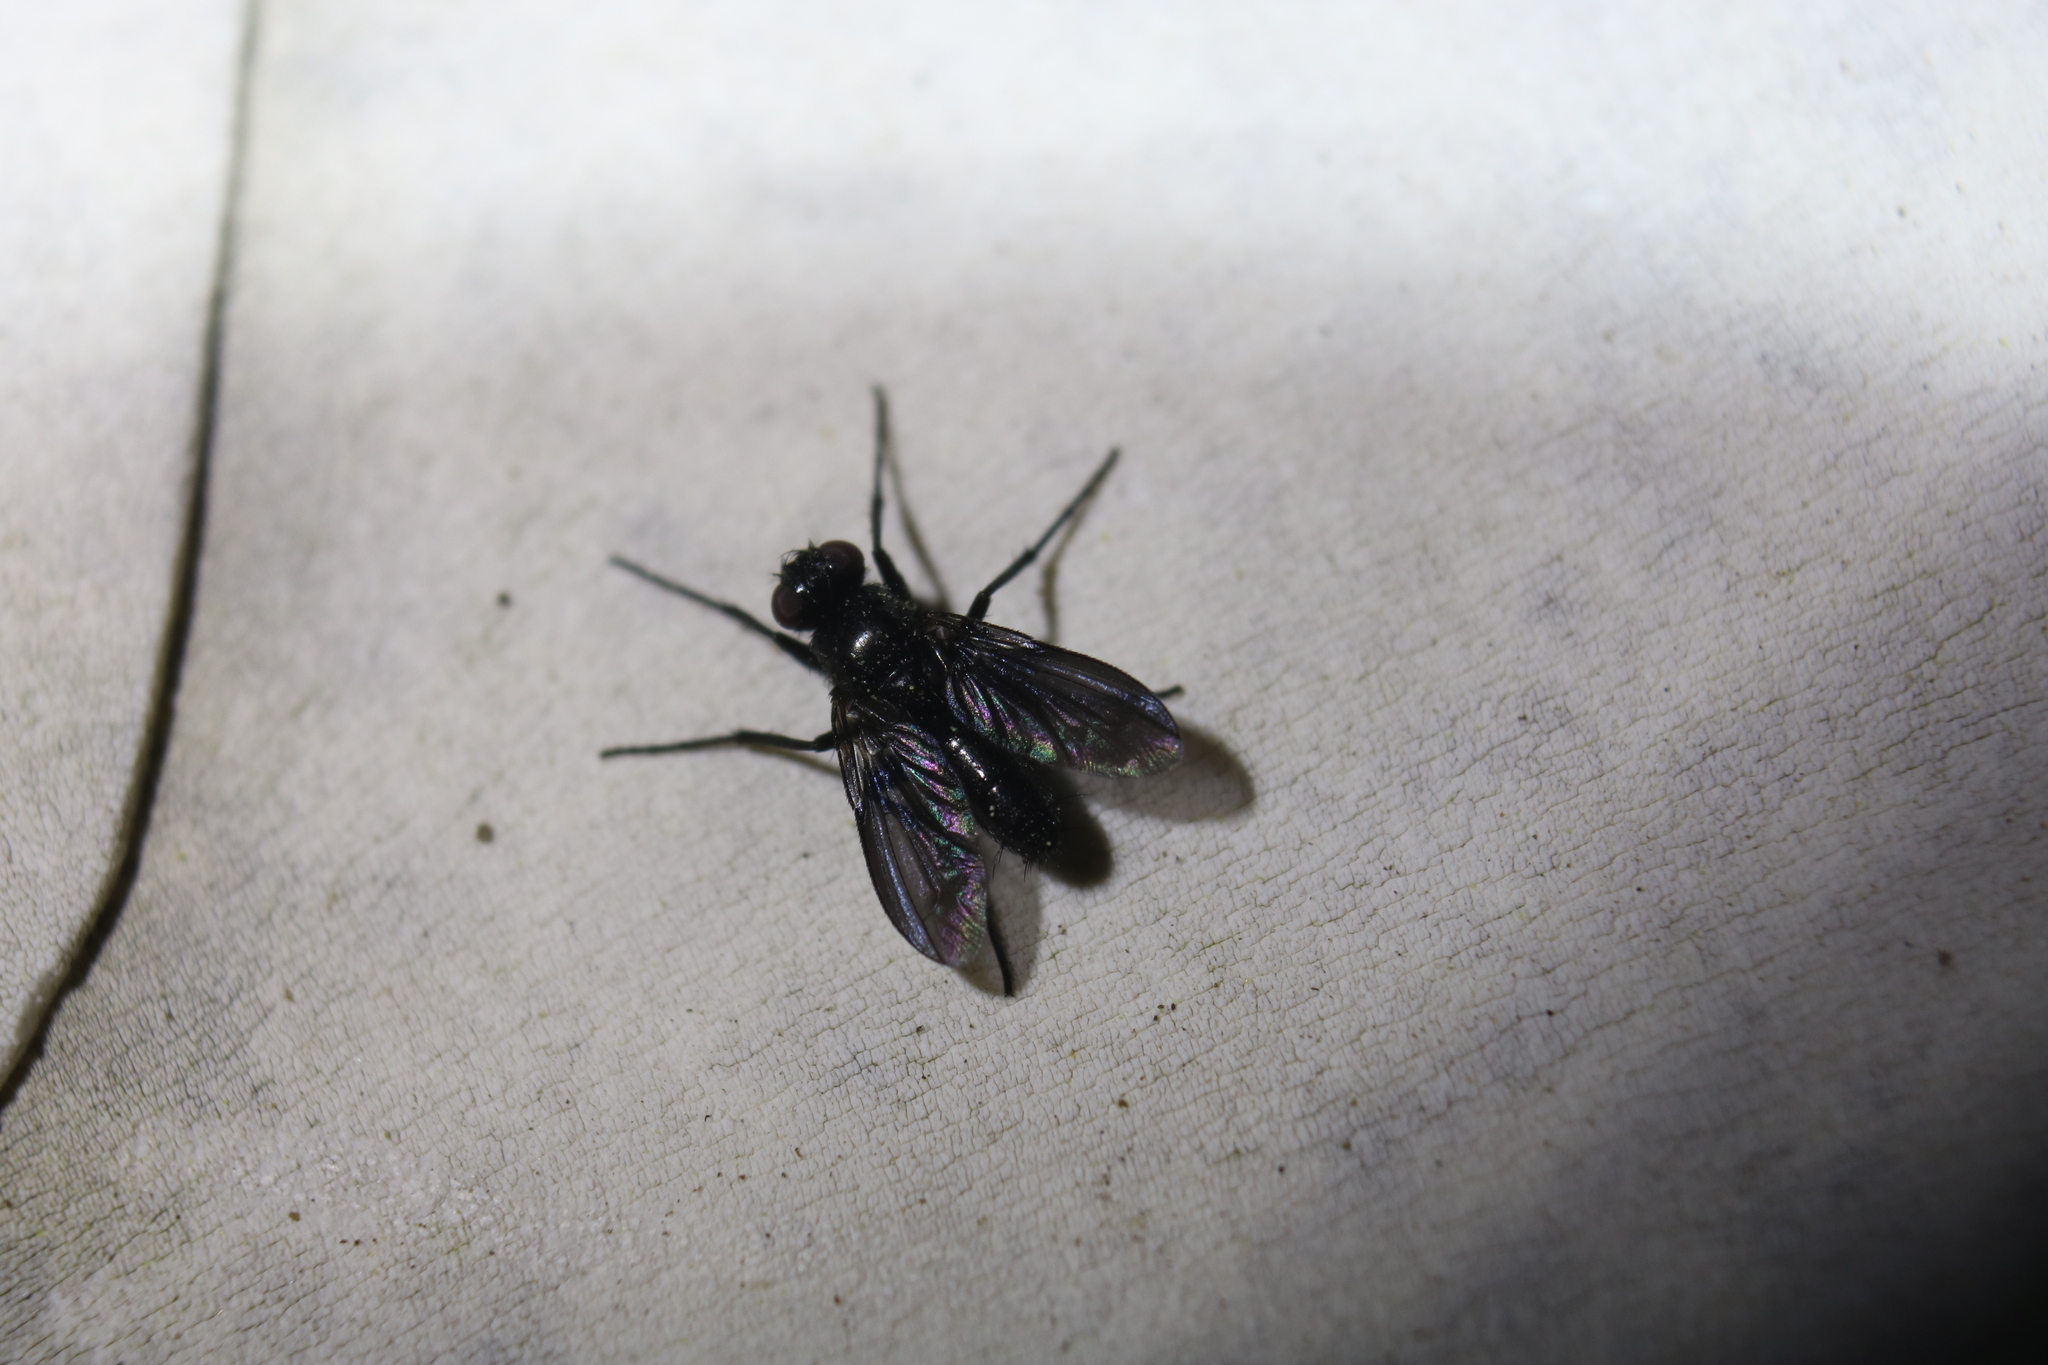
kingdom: Animalia
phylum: Arthropoda
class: Insecta
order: Diptera
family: Calliphoridae
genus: Melanophora
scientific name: Melanophora roralis
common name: Smoky-winged woodlouse-fly
